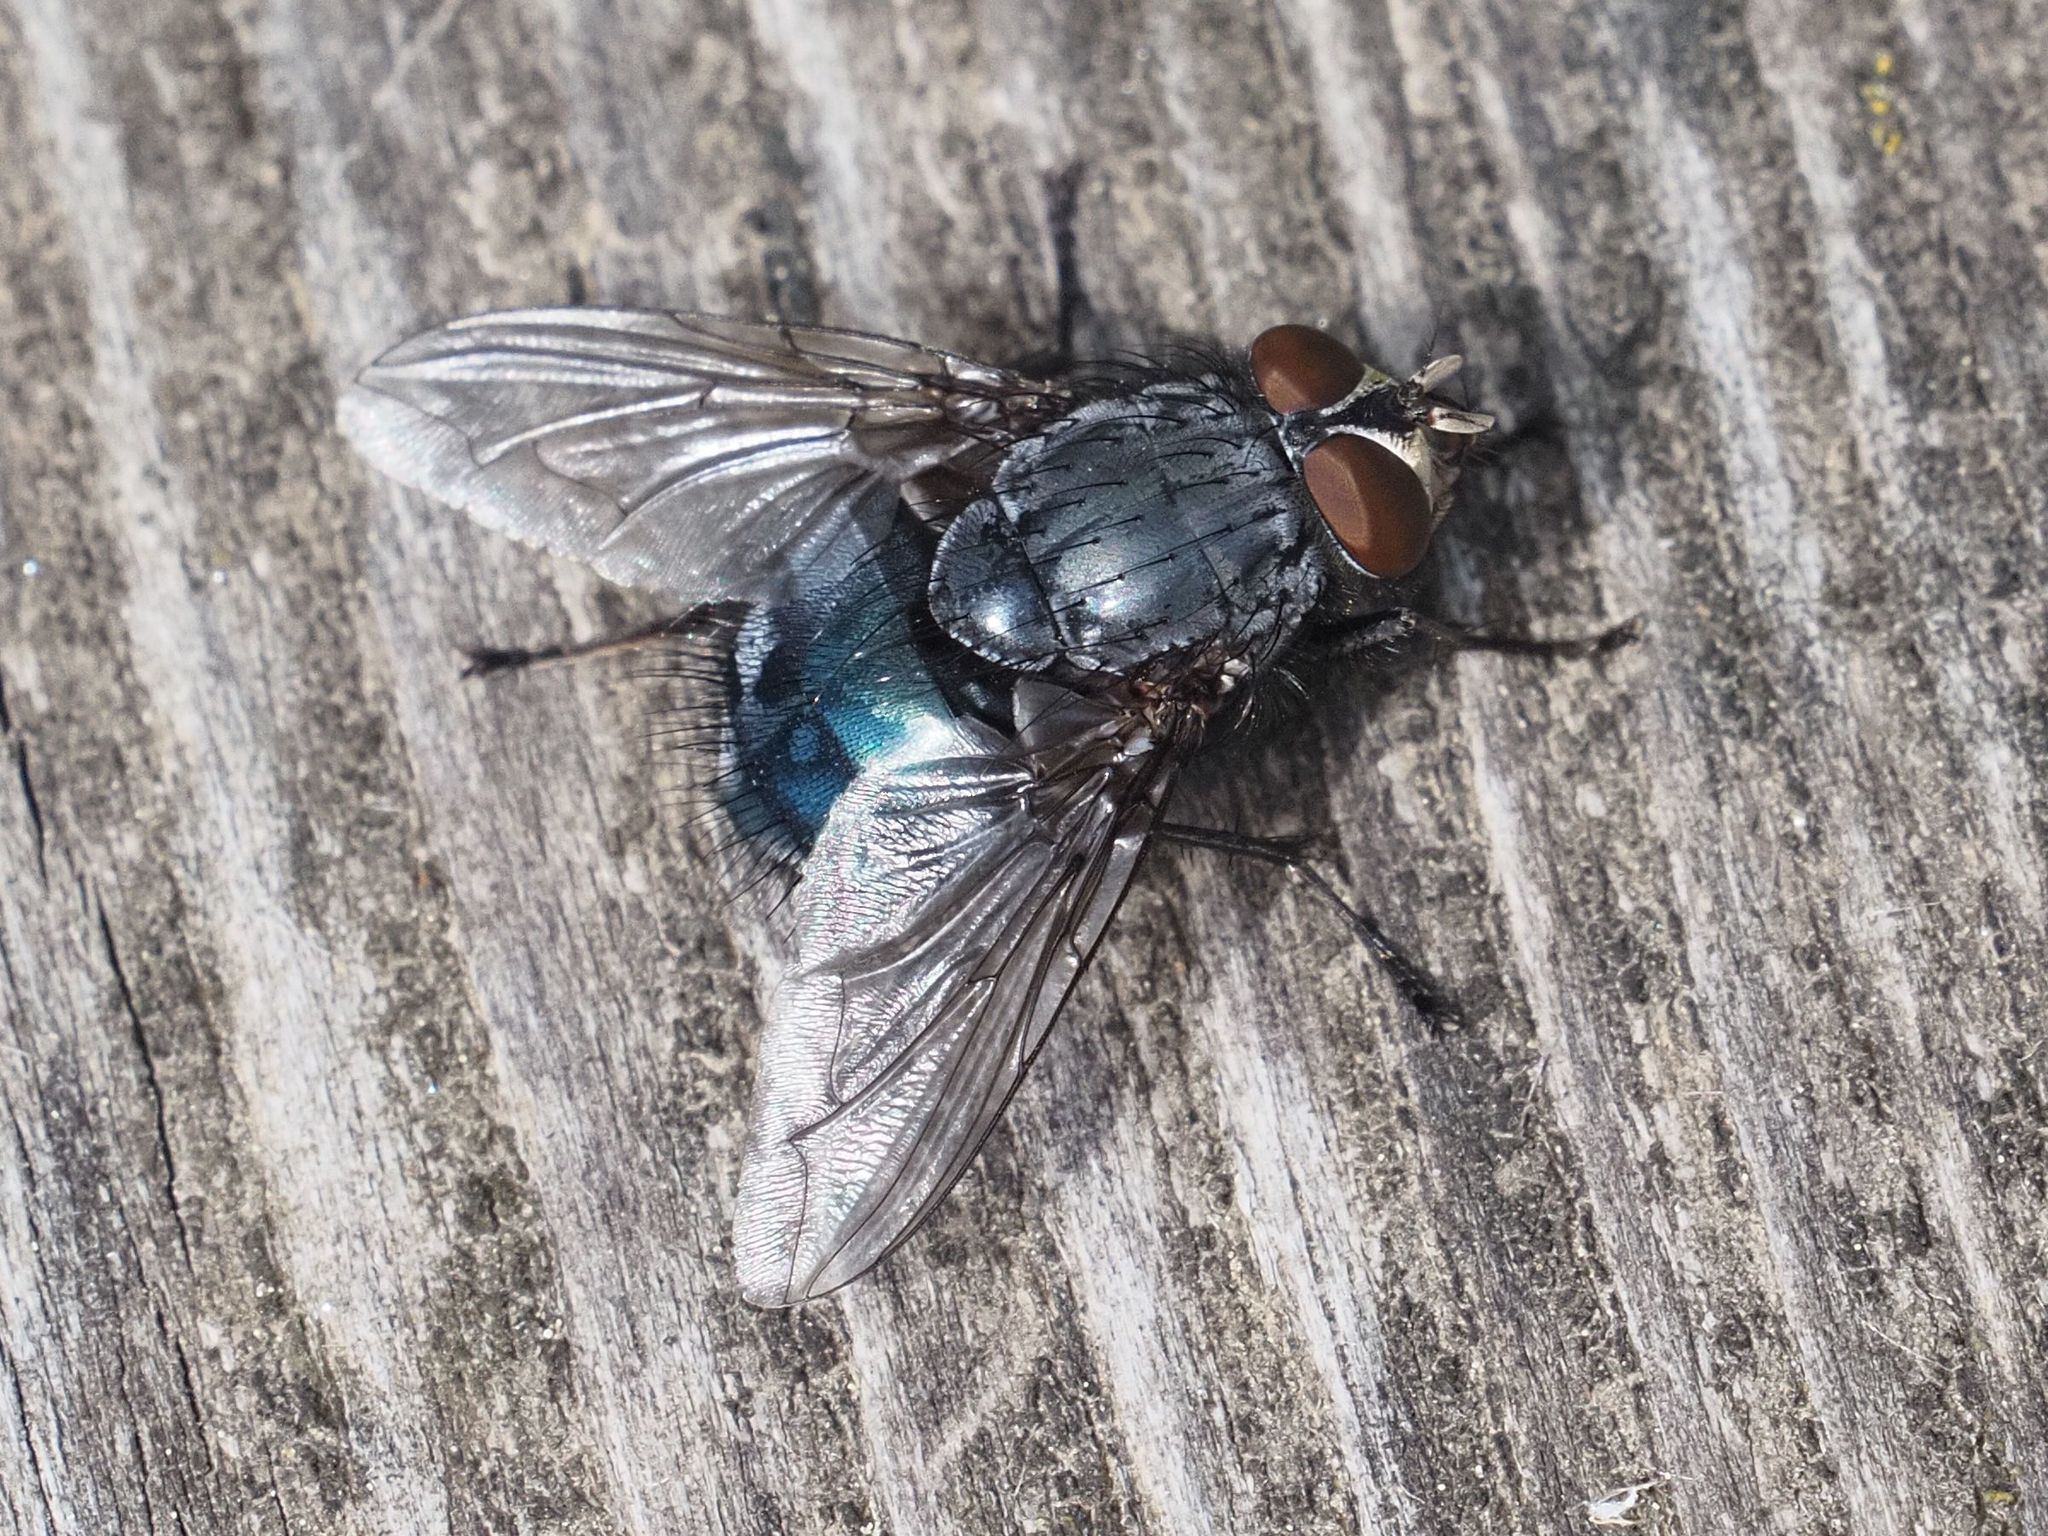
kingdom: Animalia
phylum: Arthropoda
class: Insecta
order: Diptera
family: Calliphoridae
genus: Calliphora
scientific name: Calliphora vicina
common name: Common blow flie
